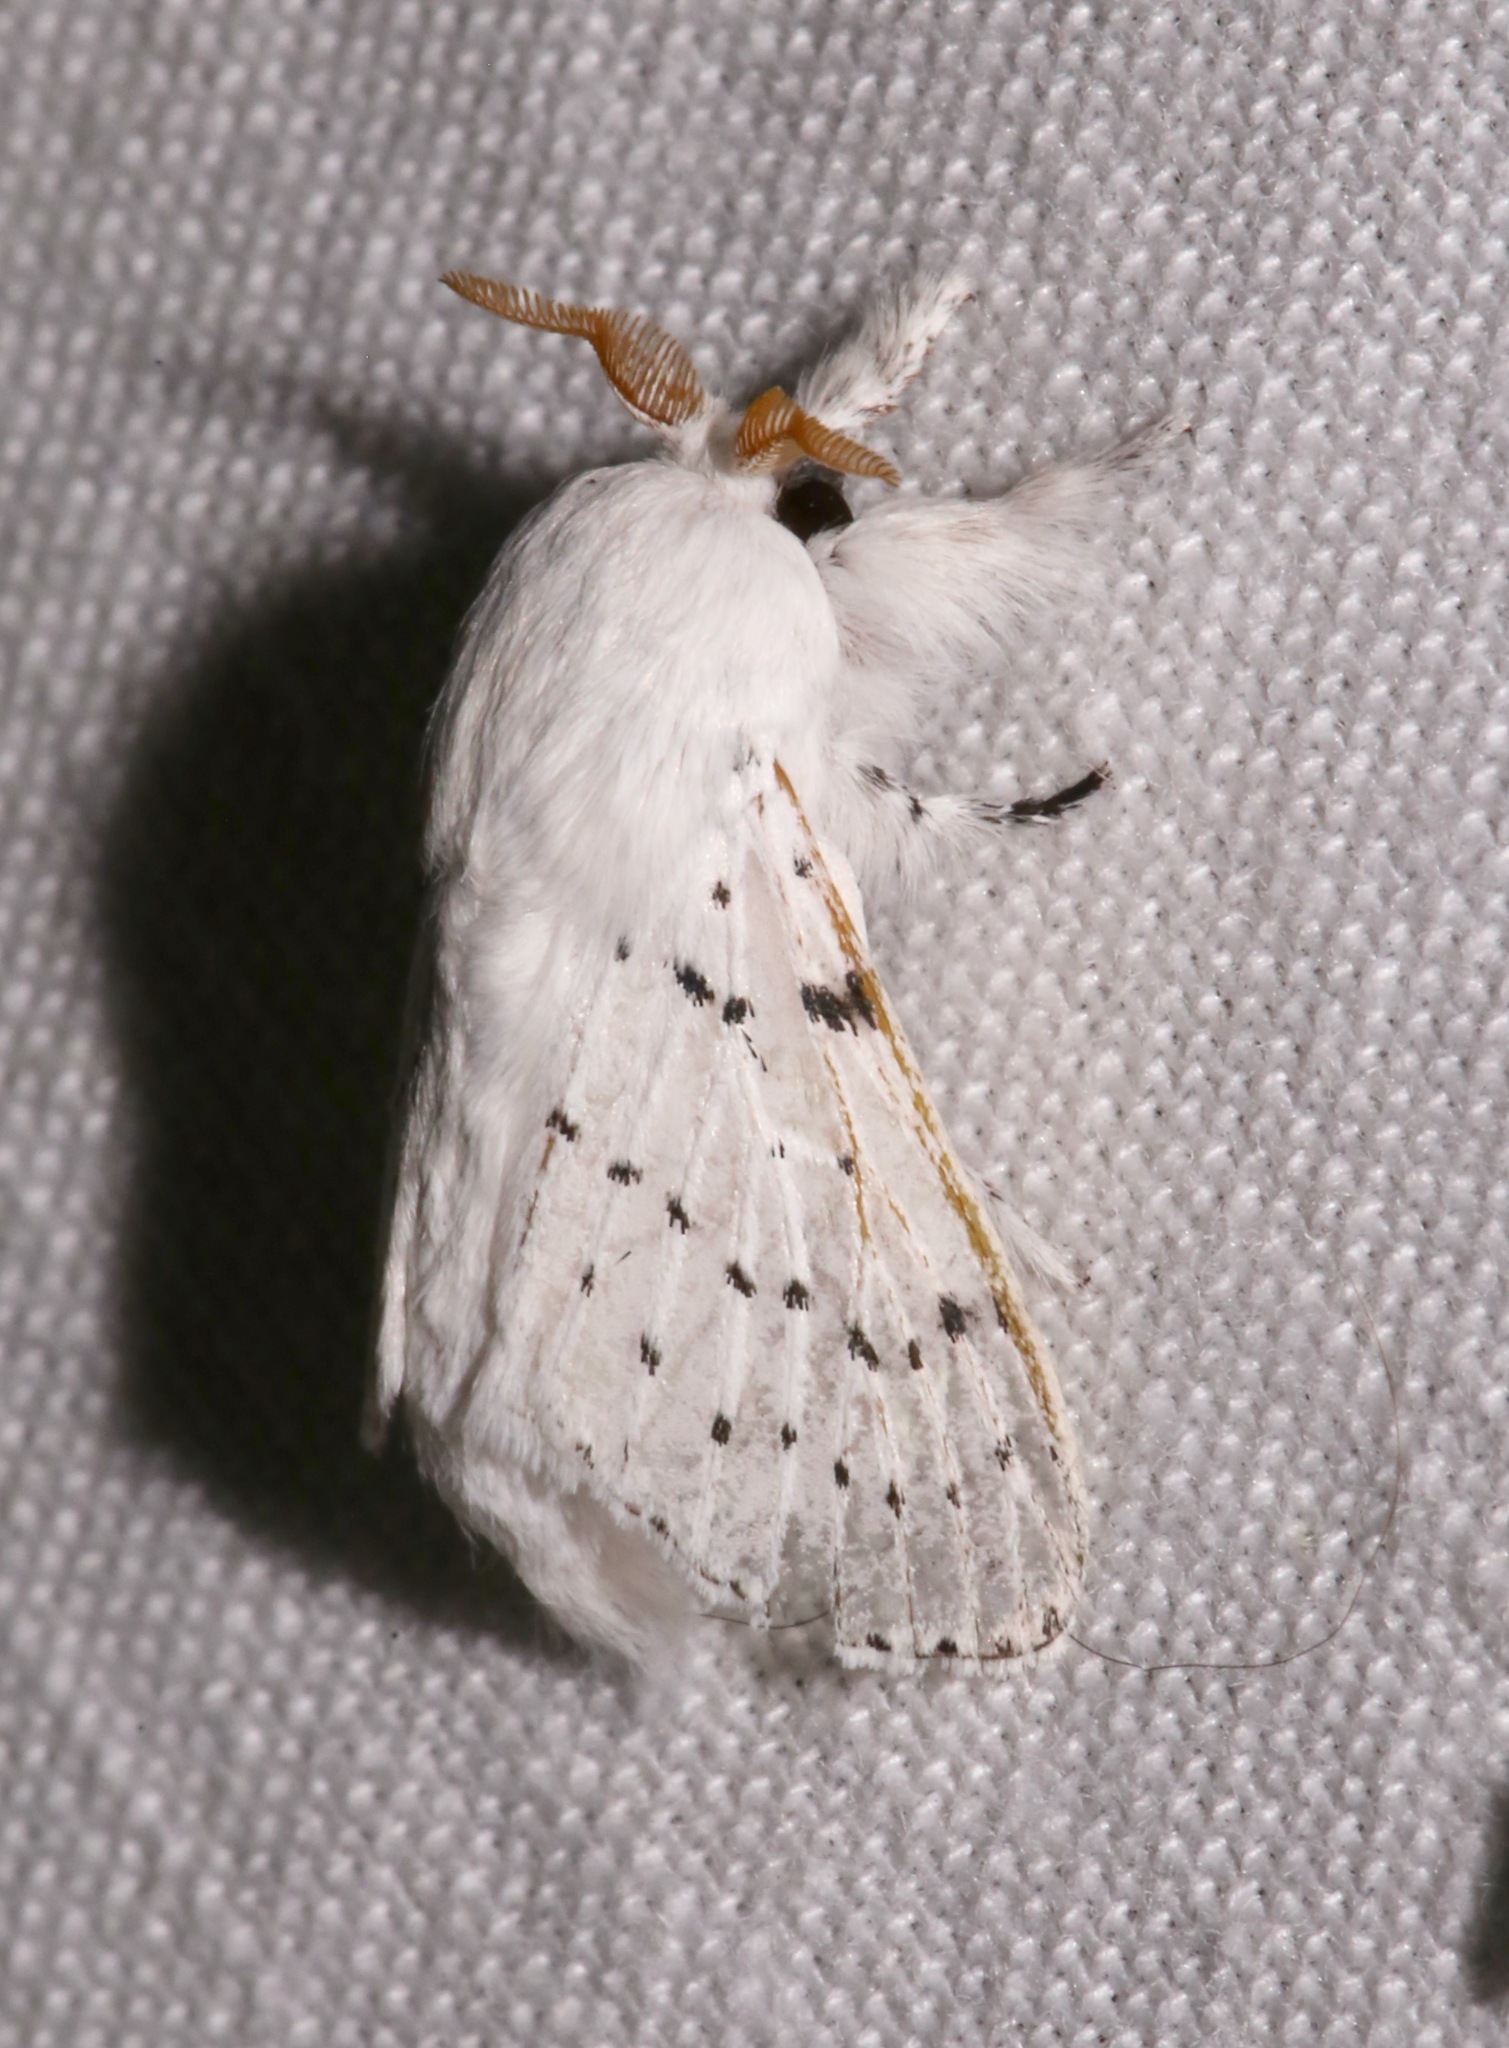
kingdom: Animalia
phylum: Arthropoda
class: Insecta
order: Lepidoptera
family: Lasiocampidae
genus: Artace
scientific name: Artace cribrarius
